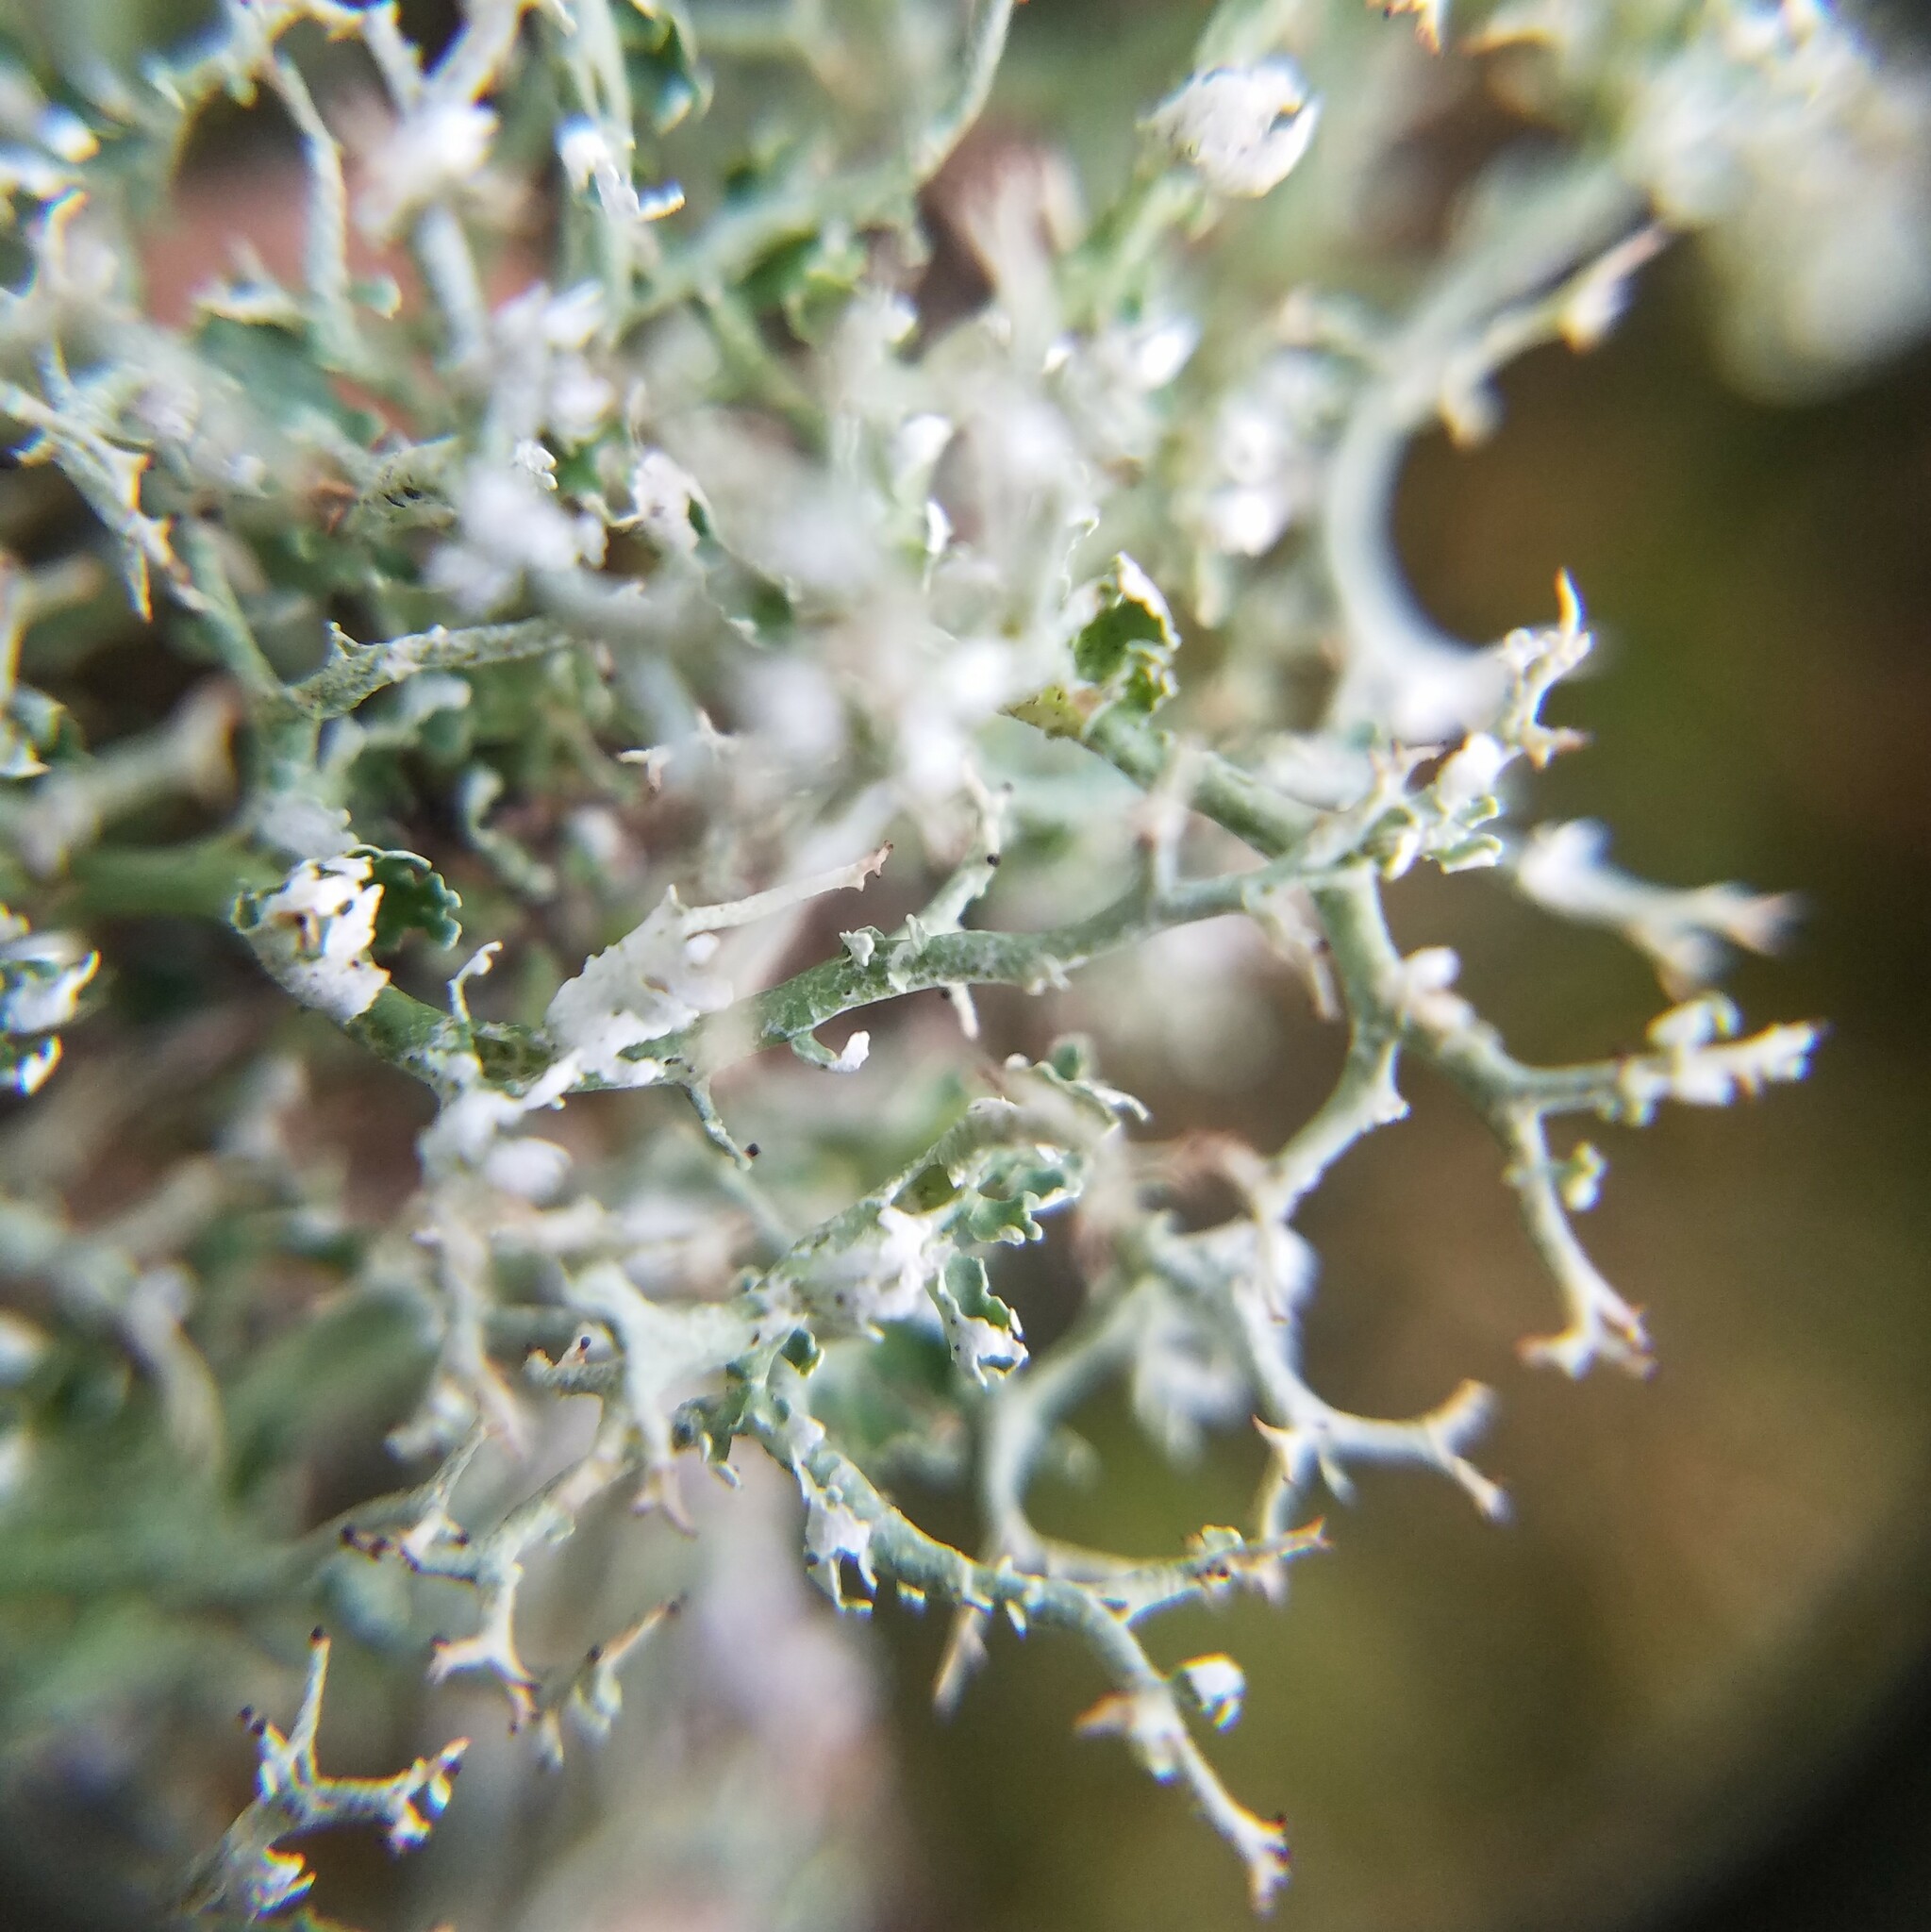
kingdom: Fungi
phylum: Ascomycota
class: Lecanoromycetes
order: Lecanorales
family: Cladoniaceae
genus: Cladonia
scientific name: Cladonia furcata
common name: Many-forked cladonia
